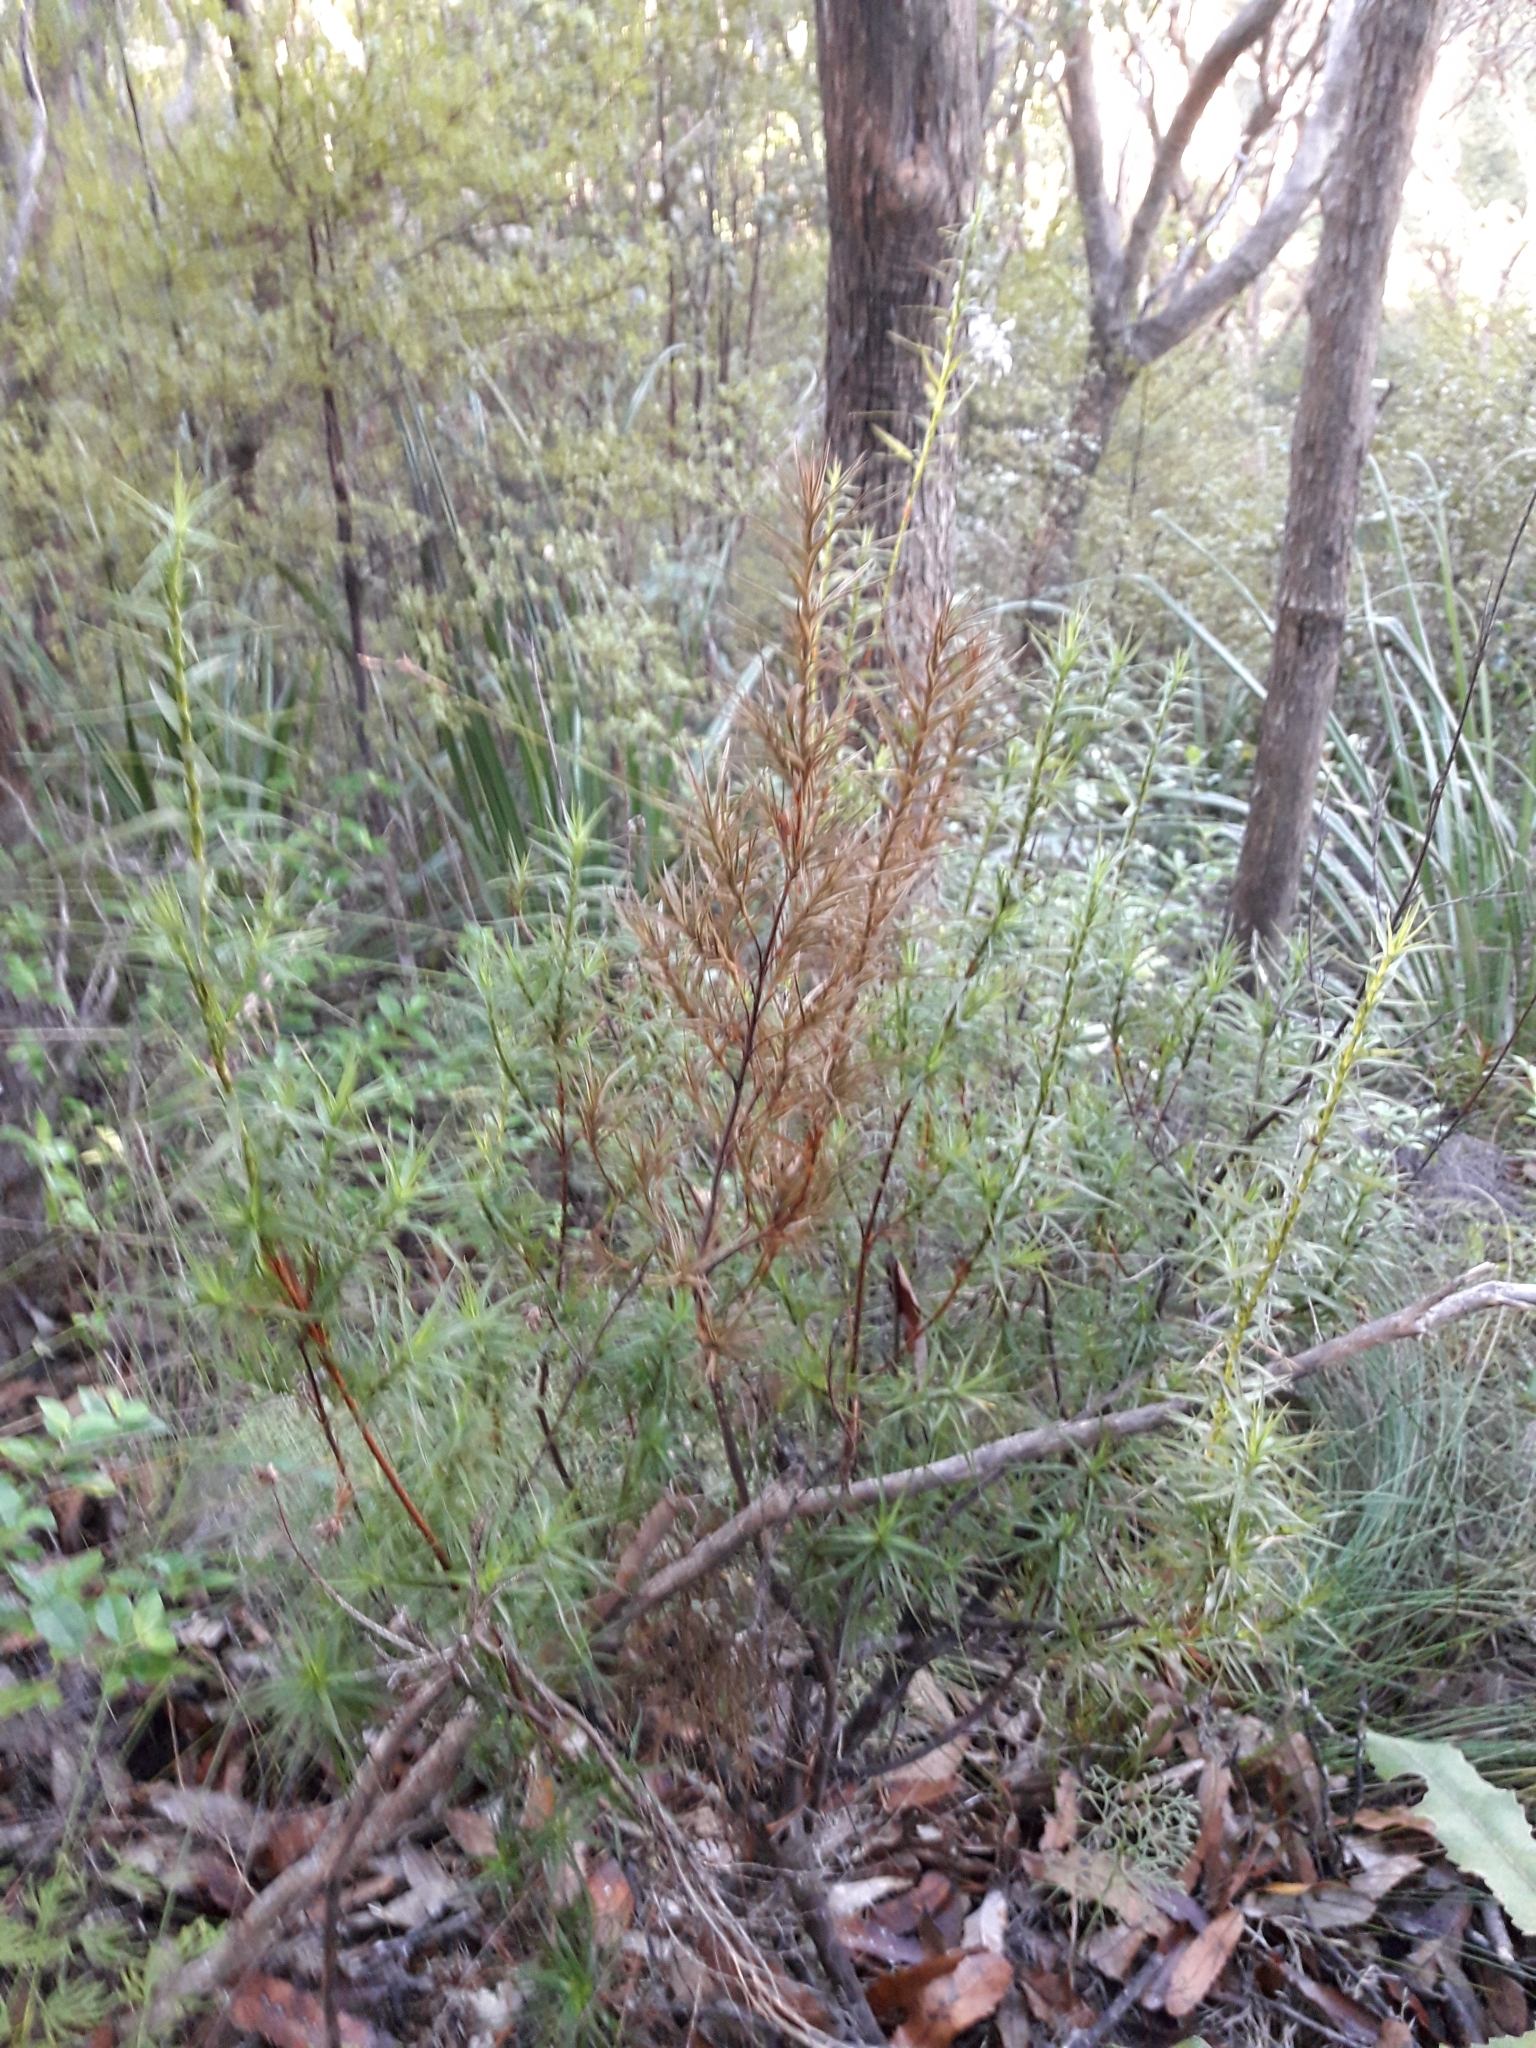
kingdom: Plantae
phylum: Tracheophyta
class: Magnoliopsida
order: Ericales
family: Ericaceae
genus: Dracophyllum
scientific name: Dracophyllum patens
